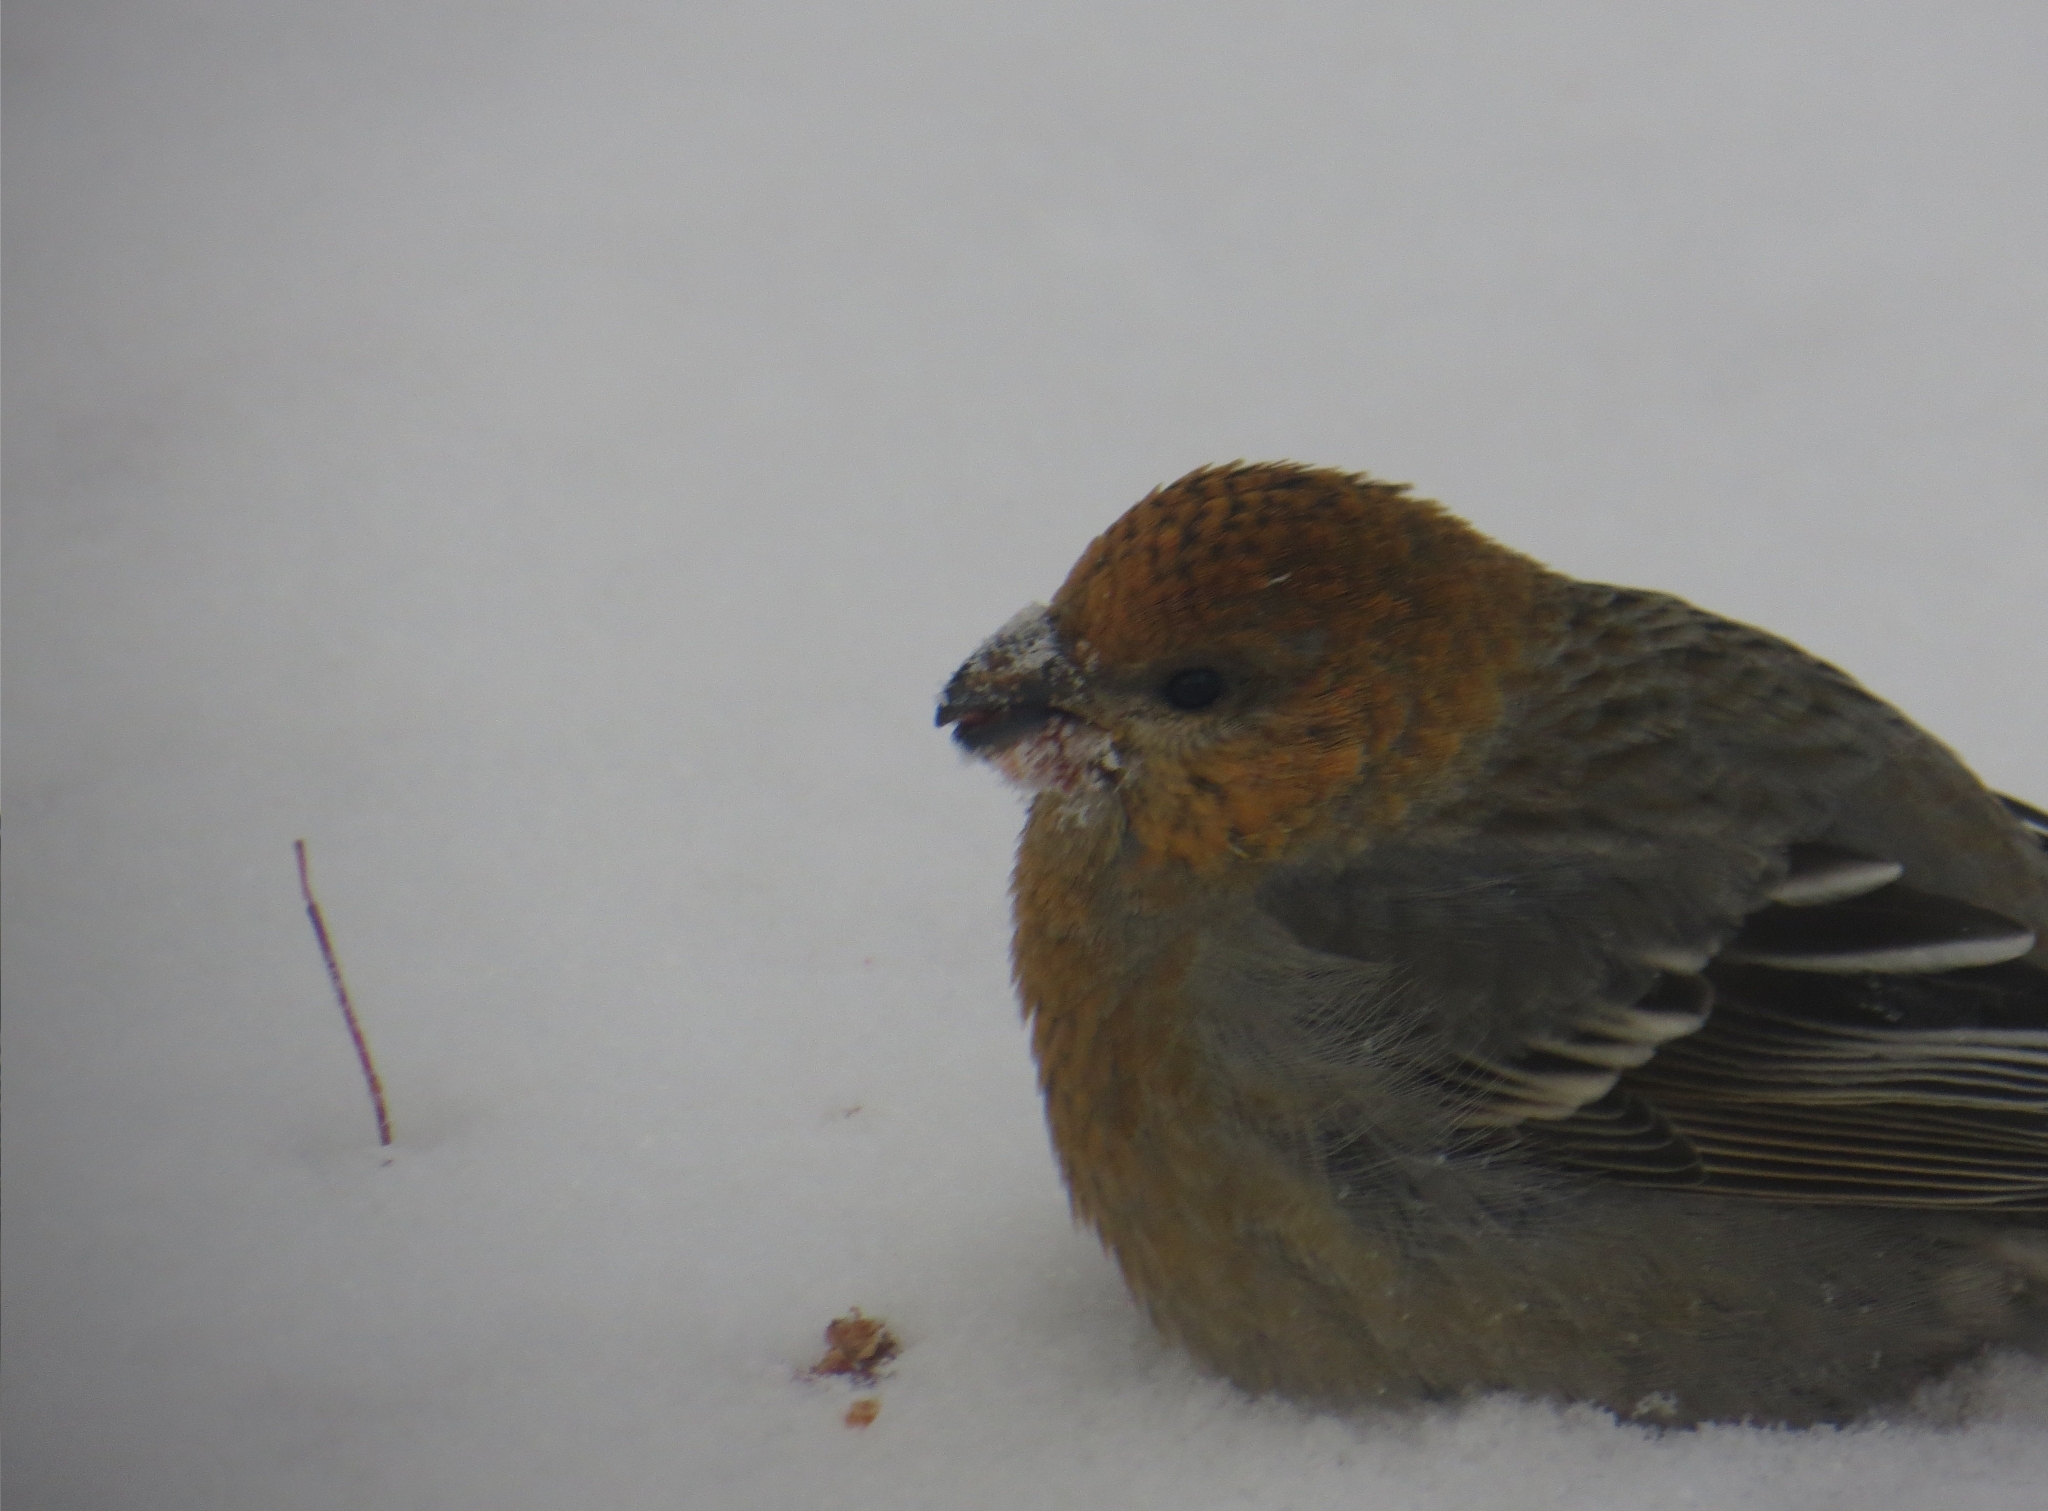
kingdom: Animalia
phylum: Chordata
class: Aves
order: Passeriformes
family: Fringillidae
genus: Pinicola
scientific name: Pinicola enucleator
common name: Pine grosbeak
